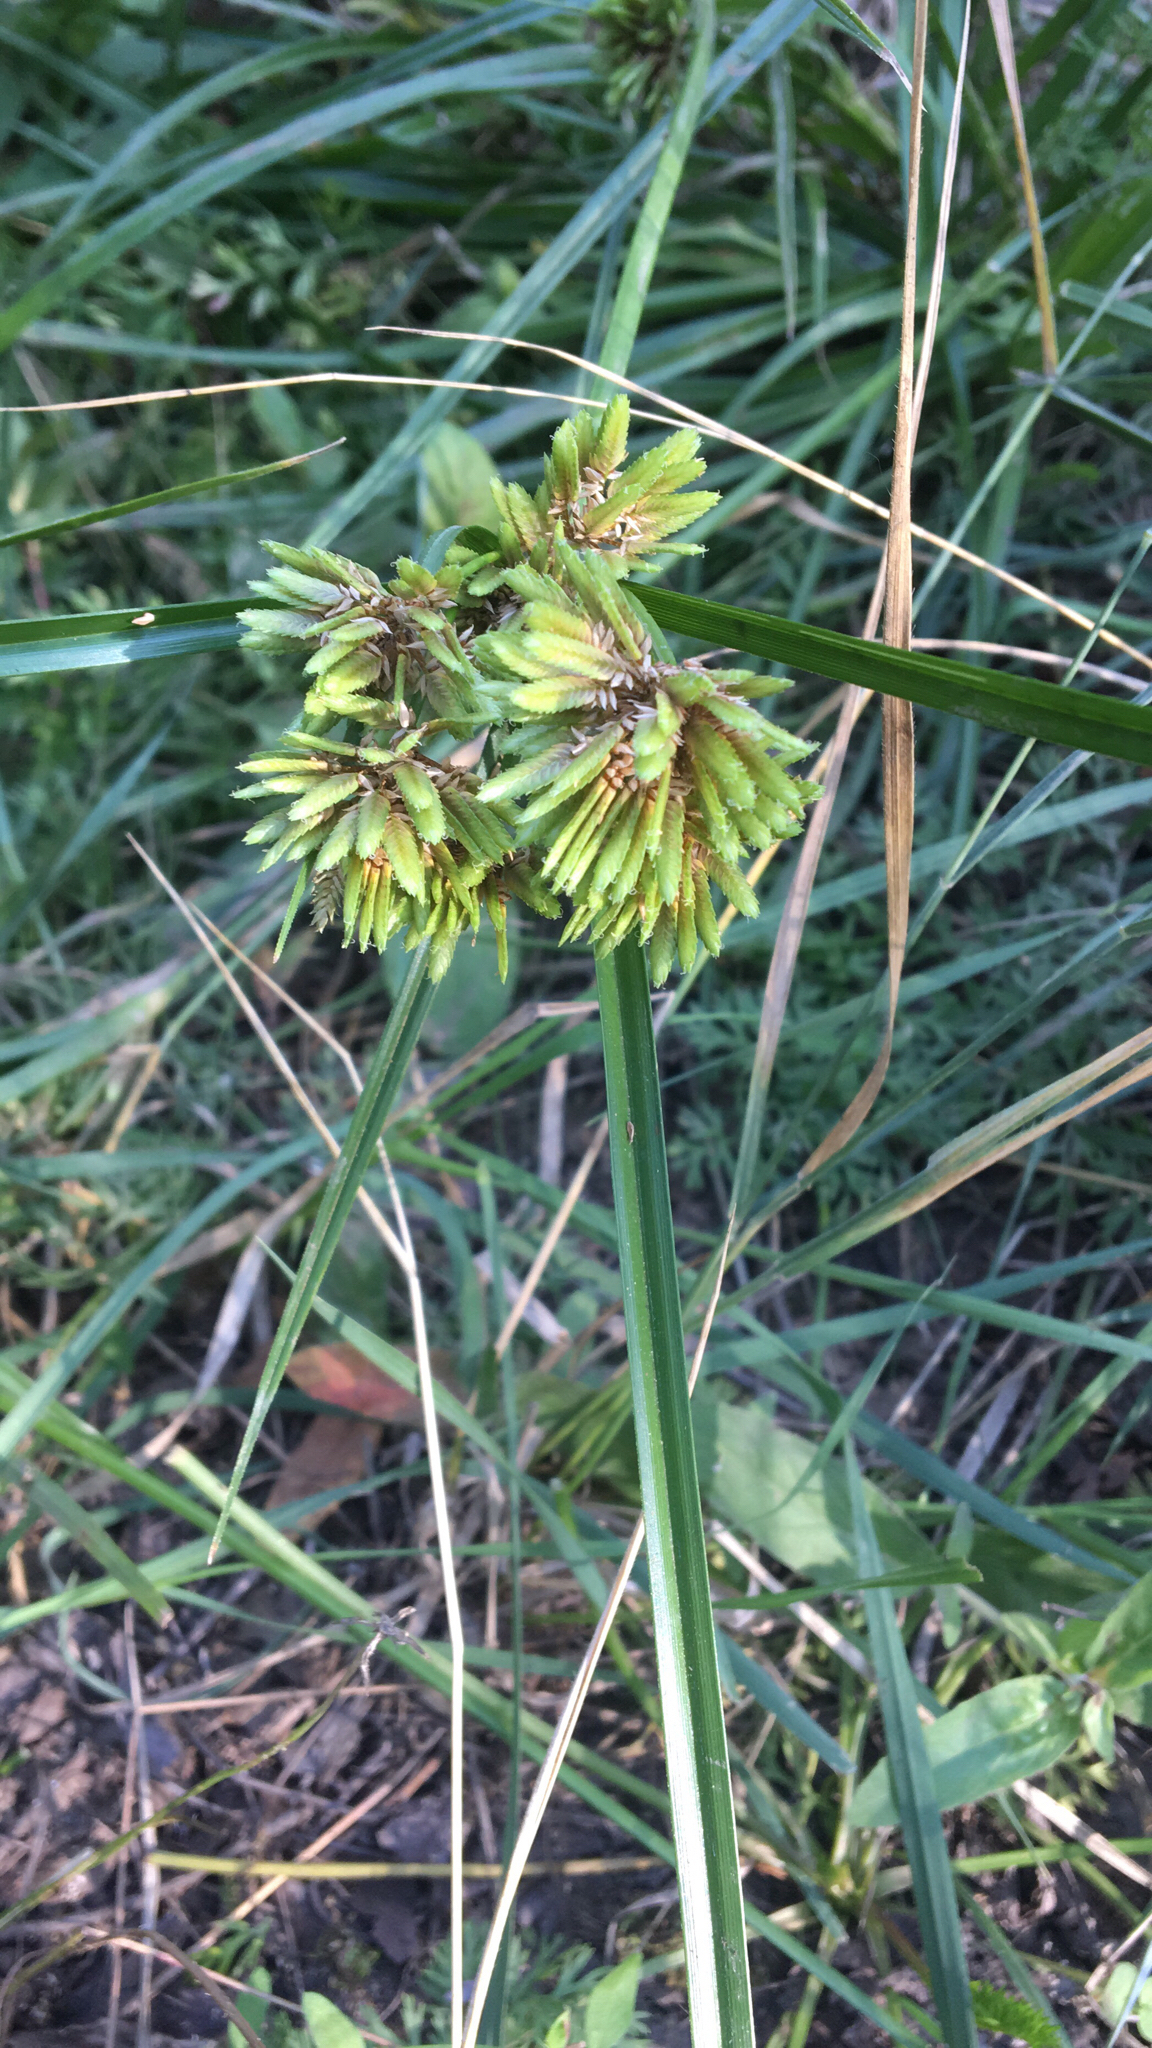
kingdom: Plantae
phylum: Tracheophyta
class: Liliopsida
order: Poales
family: Cyperaceae
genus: Cyperus
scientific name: Cyperus eragrostis
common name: Tall flatsedge
